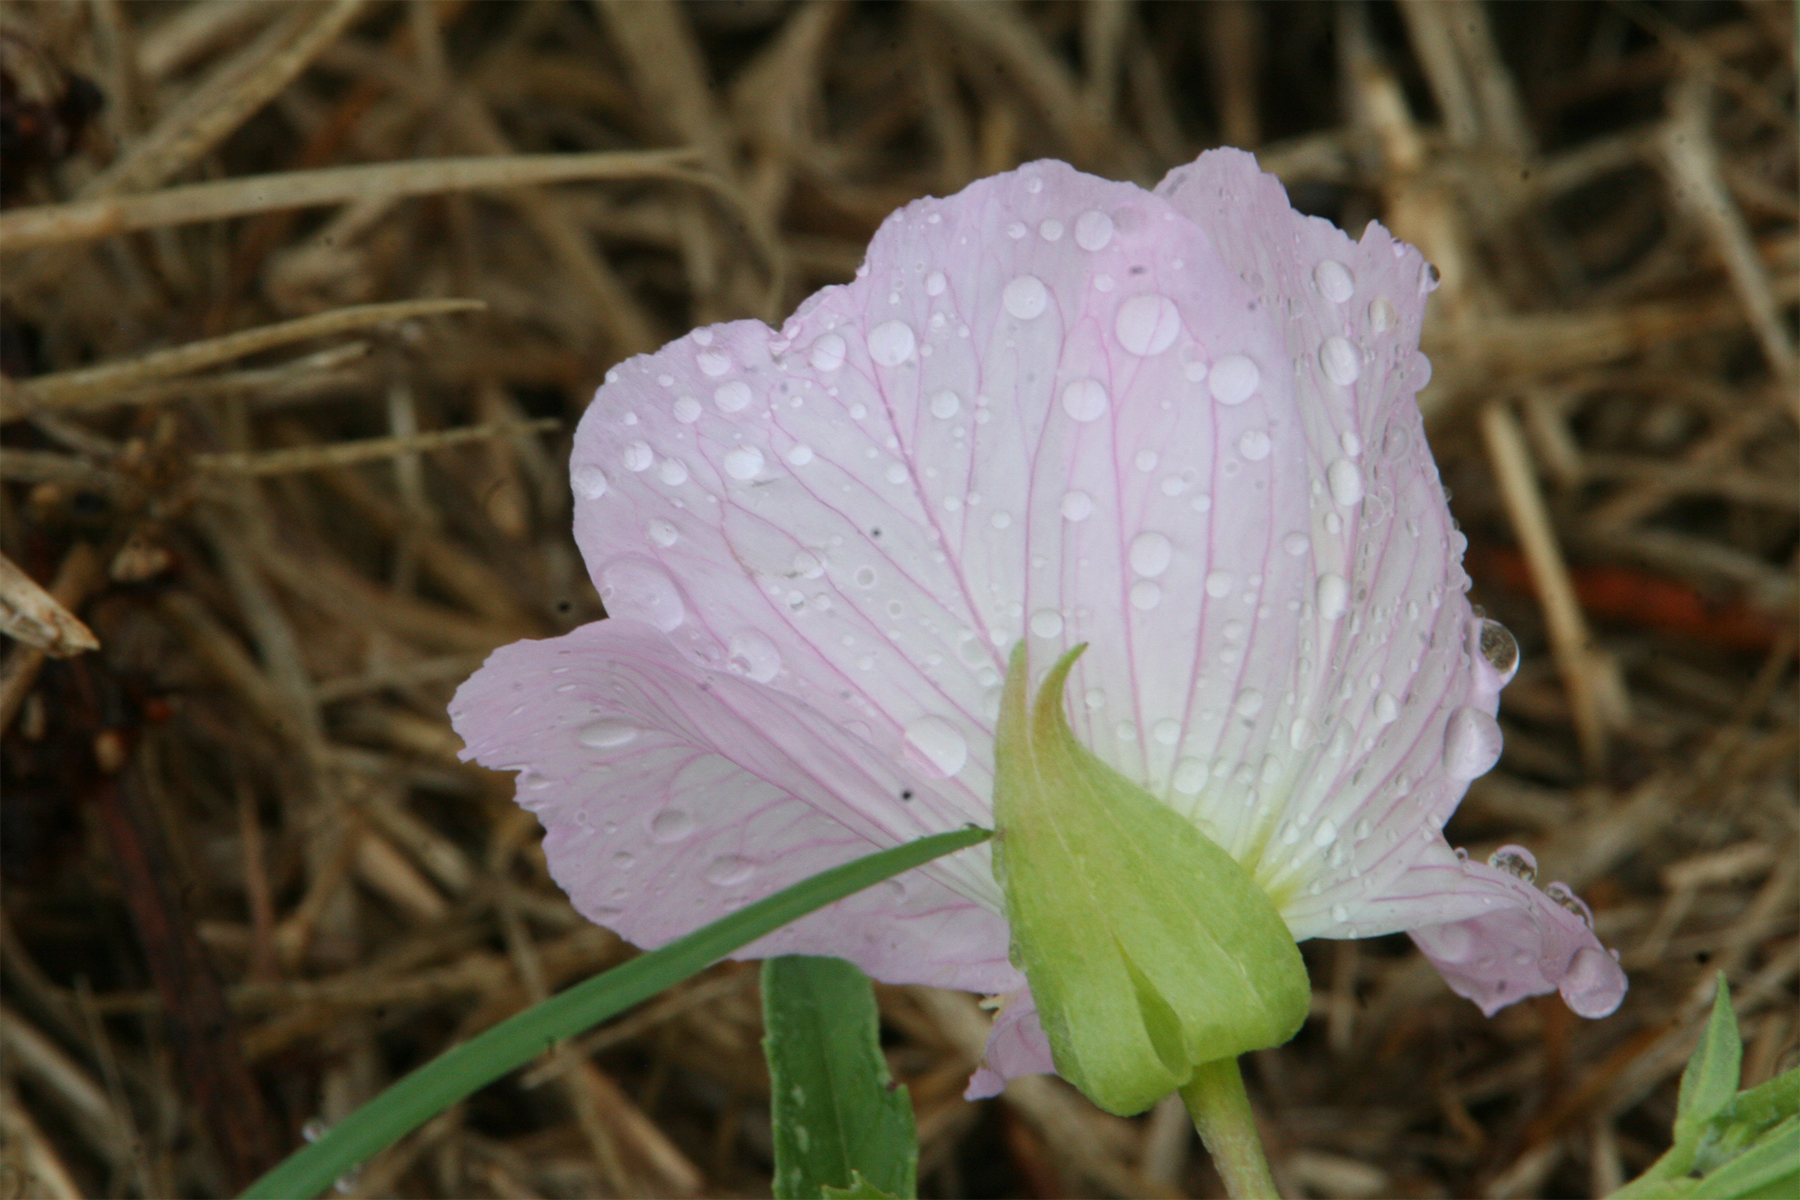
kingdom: Plantae
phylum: Tracheophyta
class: Magnoliopsida
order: Myrtales
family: Onagraceae
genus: Oenothera
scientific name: Oenothera speciosa
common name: White evening-primrose
